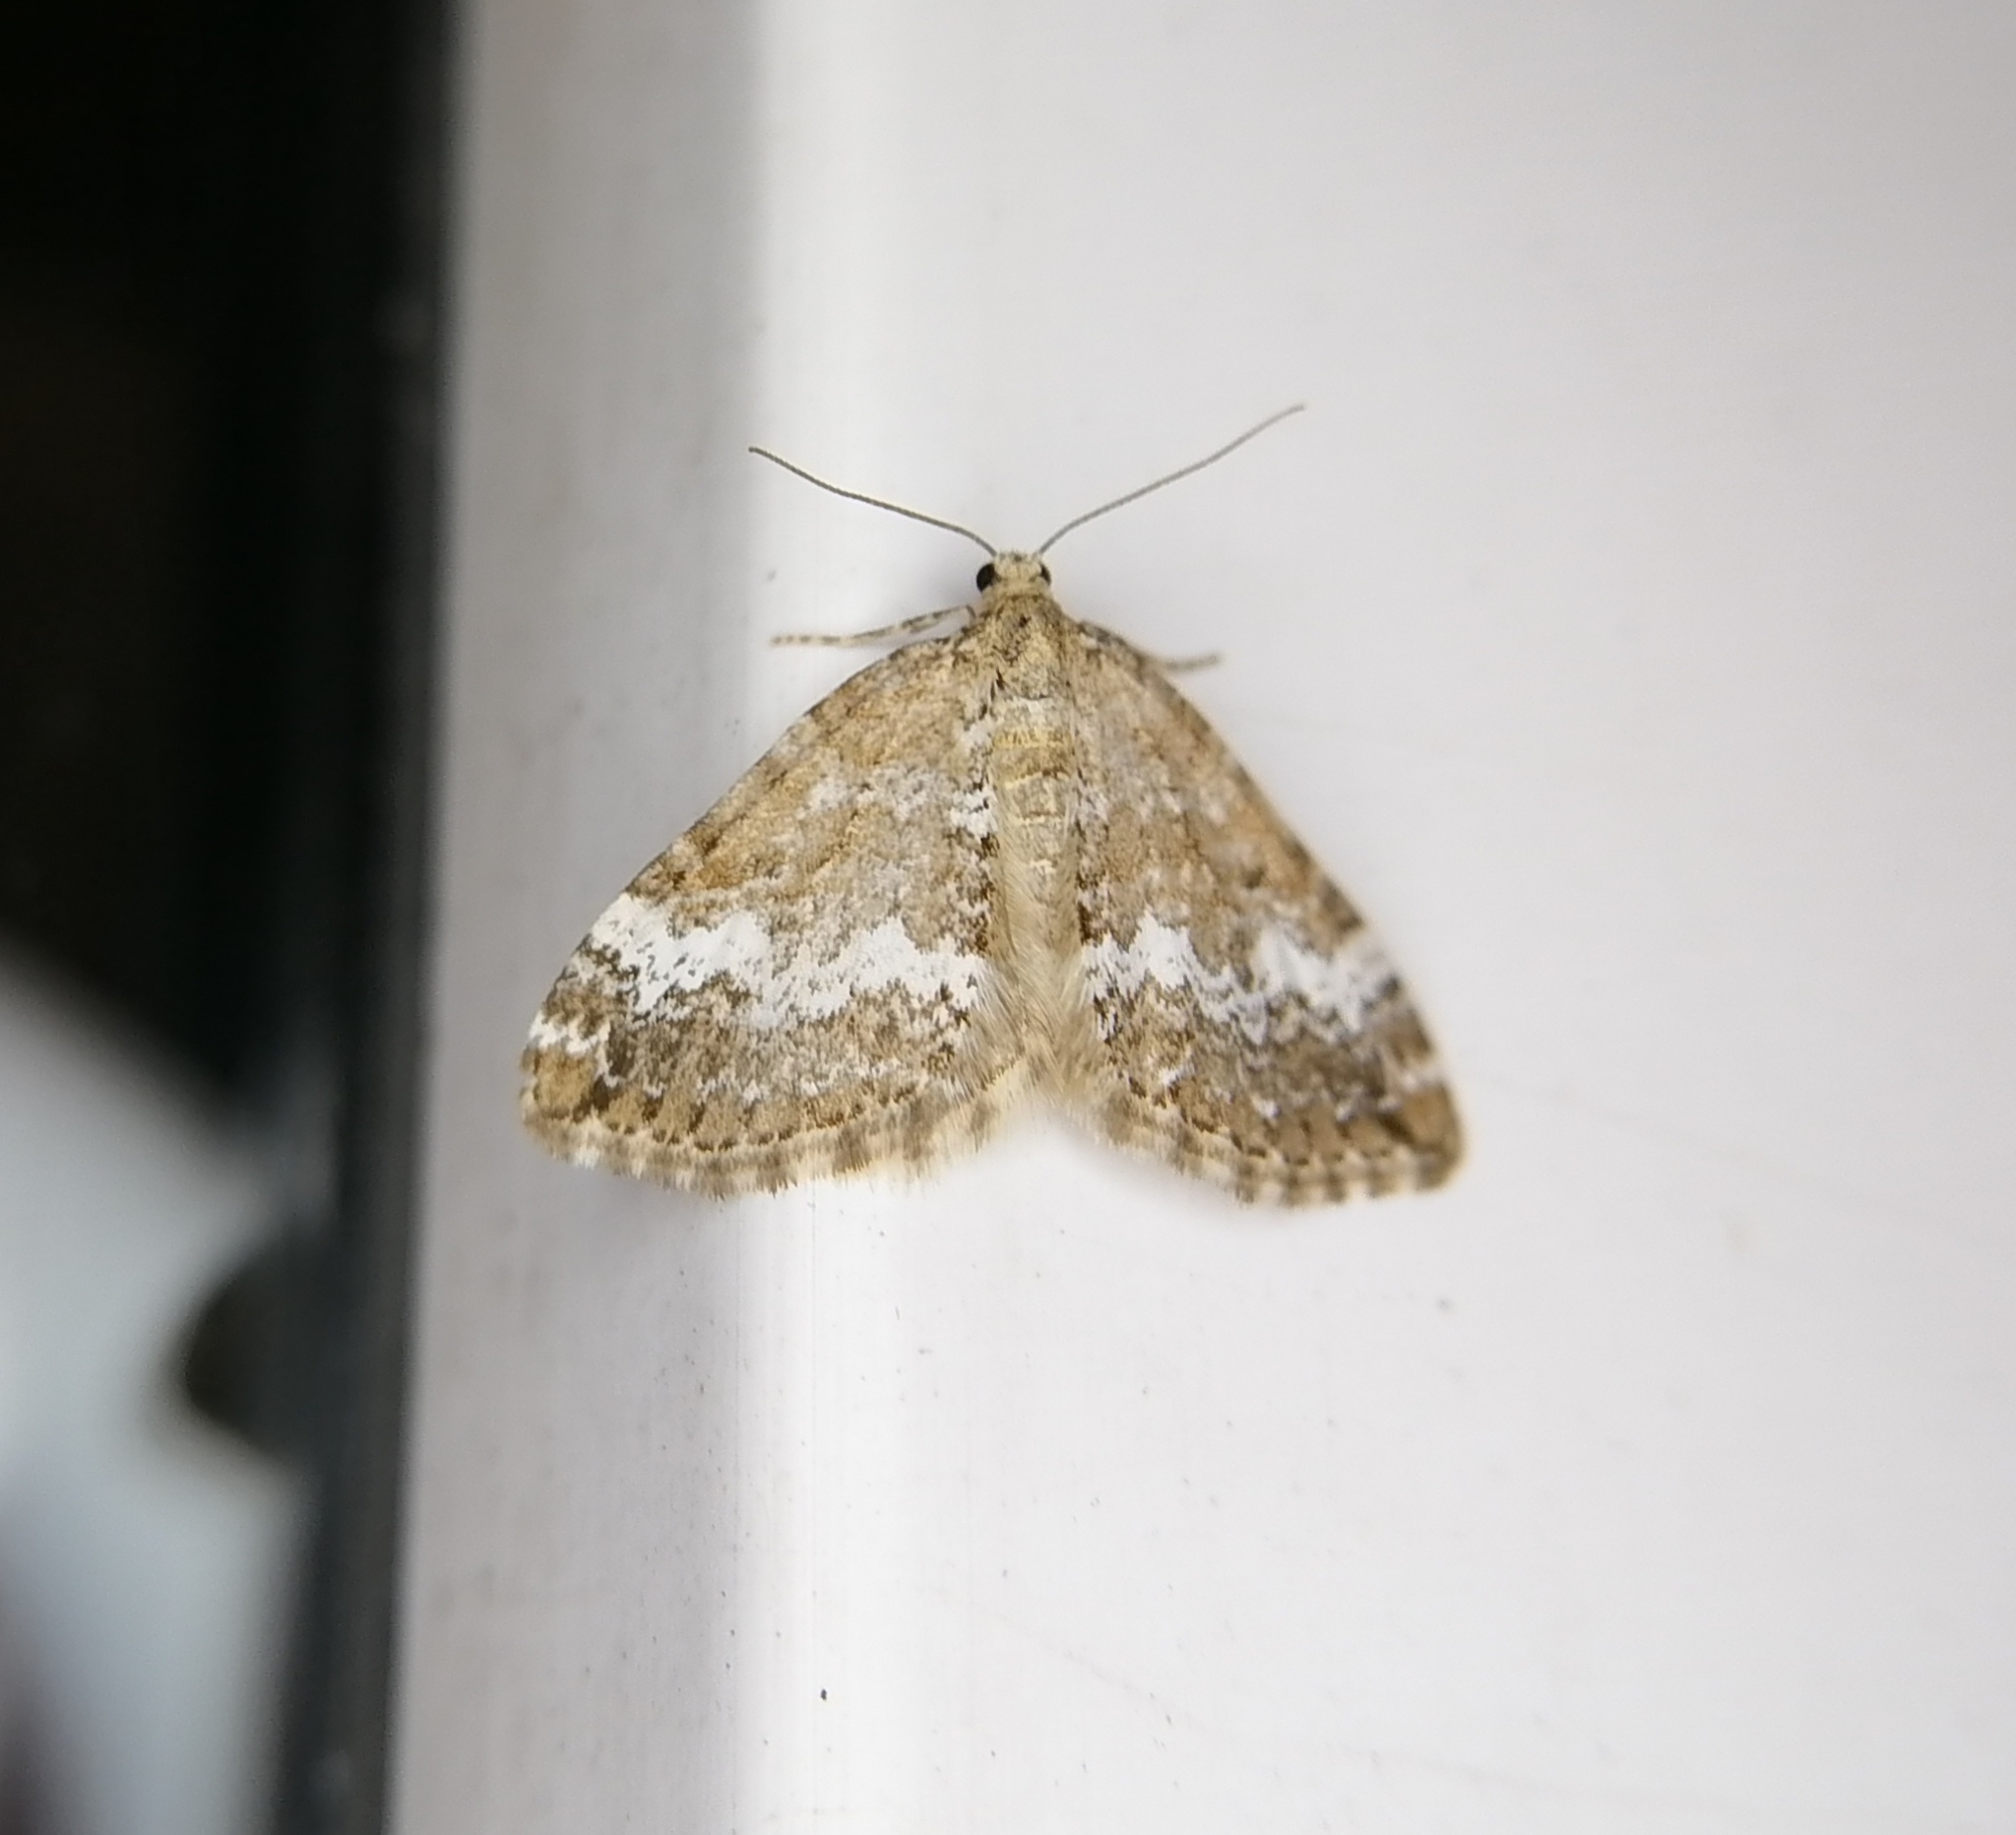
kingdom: Animalia
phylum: Arthropoda
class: Insecta
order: Lepidoptera
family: Geometridae
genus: Perizoma
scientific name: Perizoma alchemillata
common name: Small rivulet
